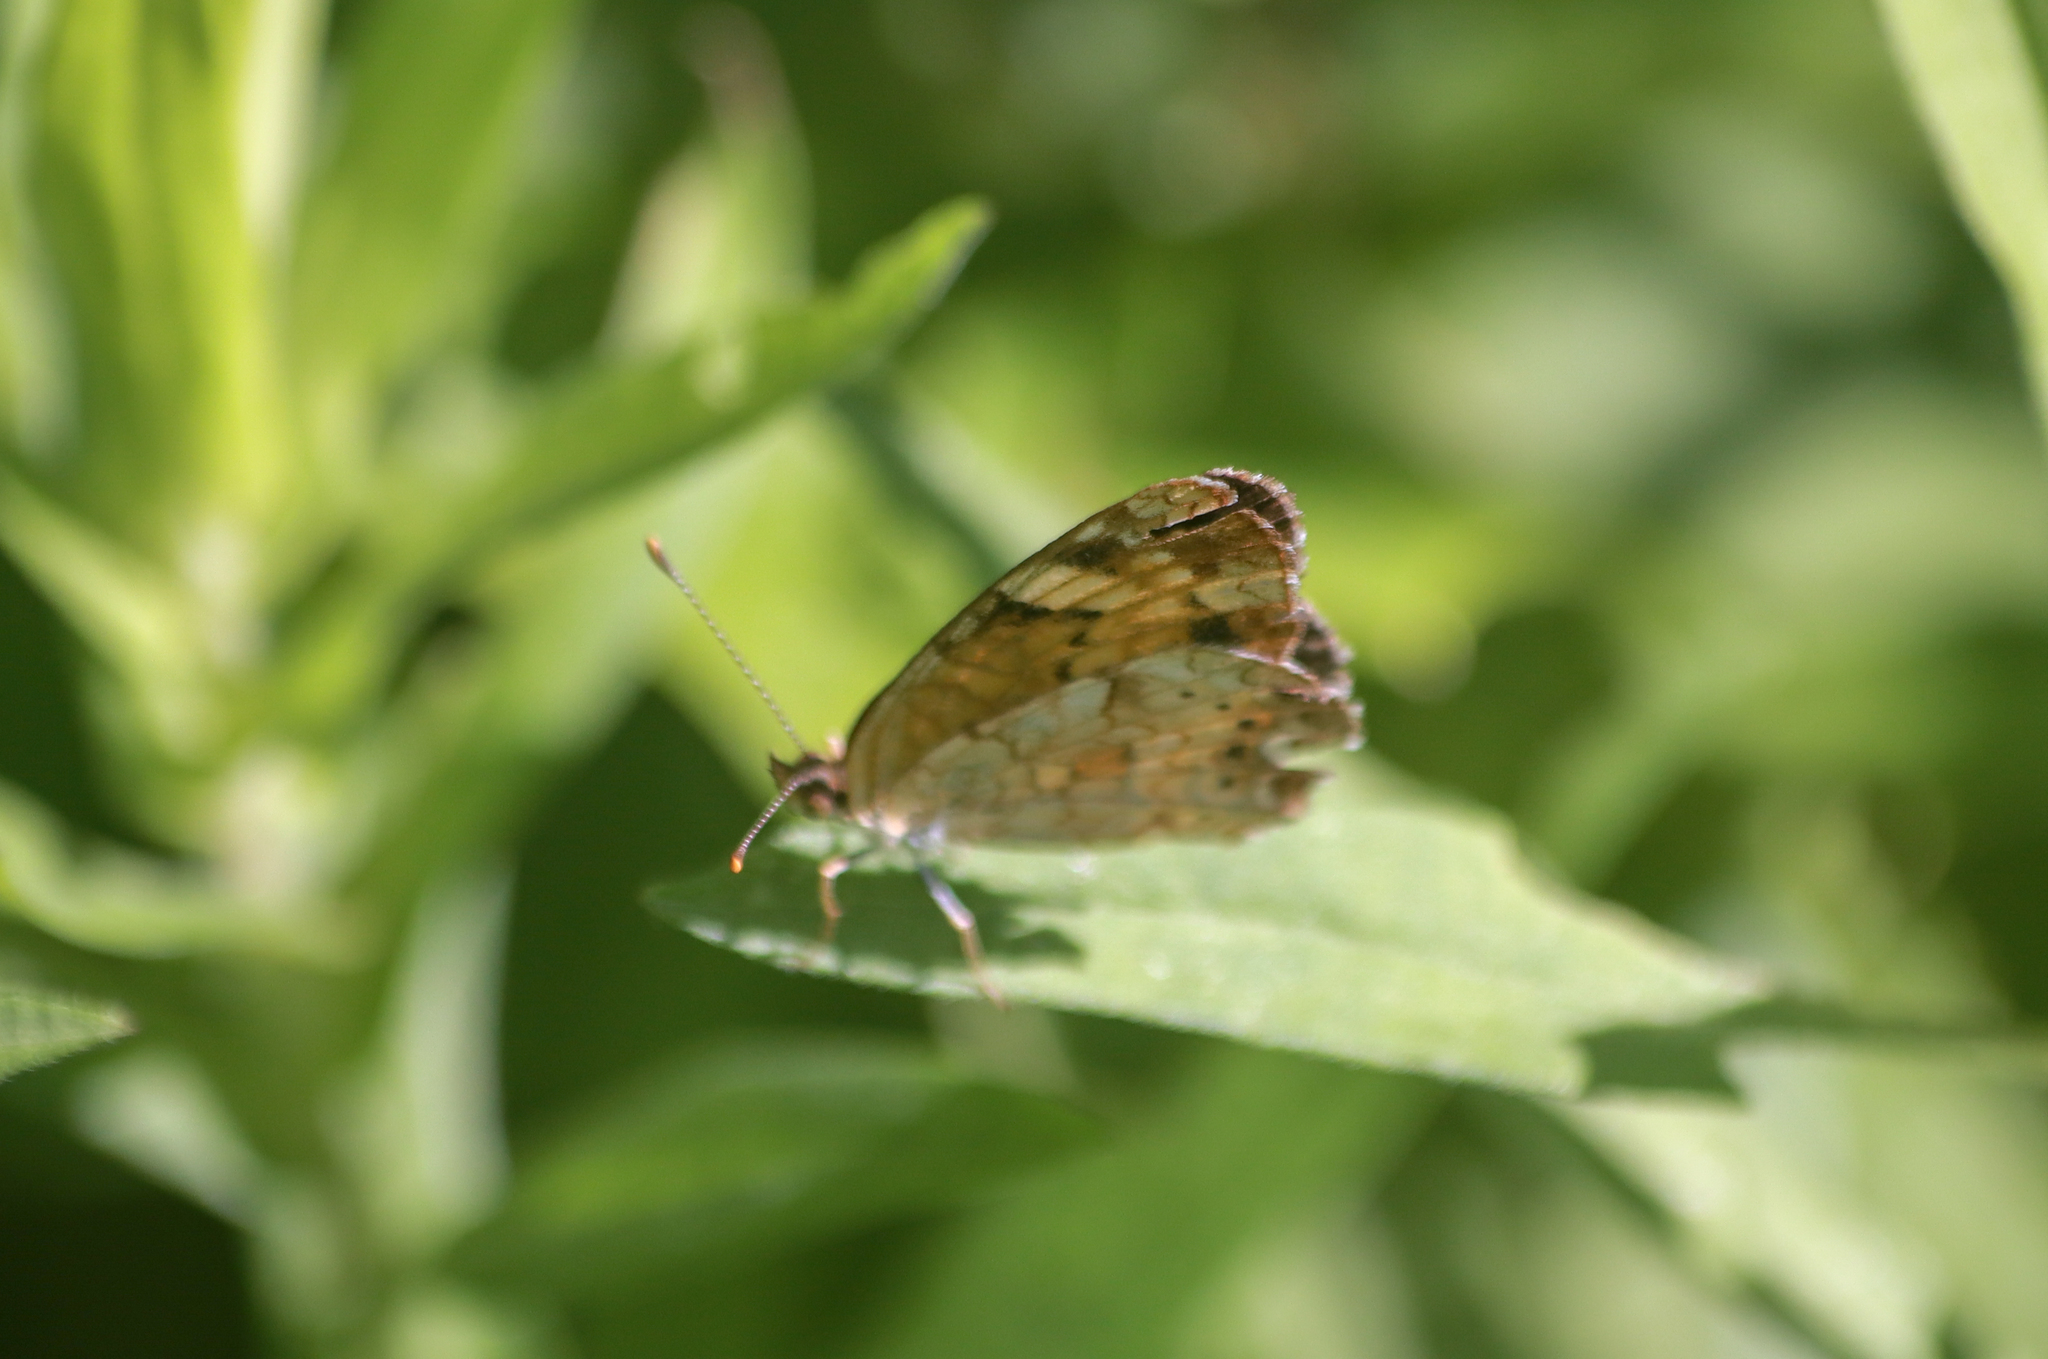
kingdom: Animalia
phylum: Arthropoda
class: Insecta
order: Lepidoptera
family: Nymphalidae
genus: Phyciodes
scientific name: Phyciodes tharos
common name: Pearl crescent
